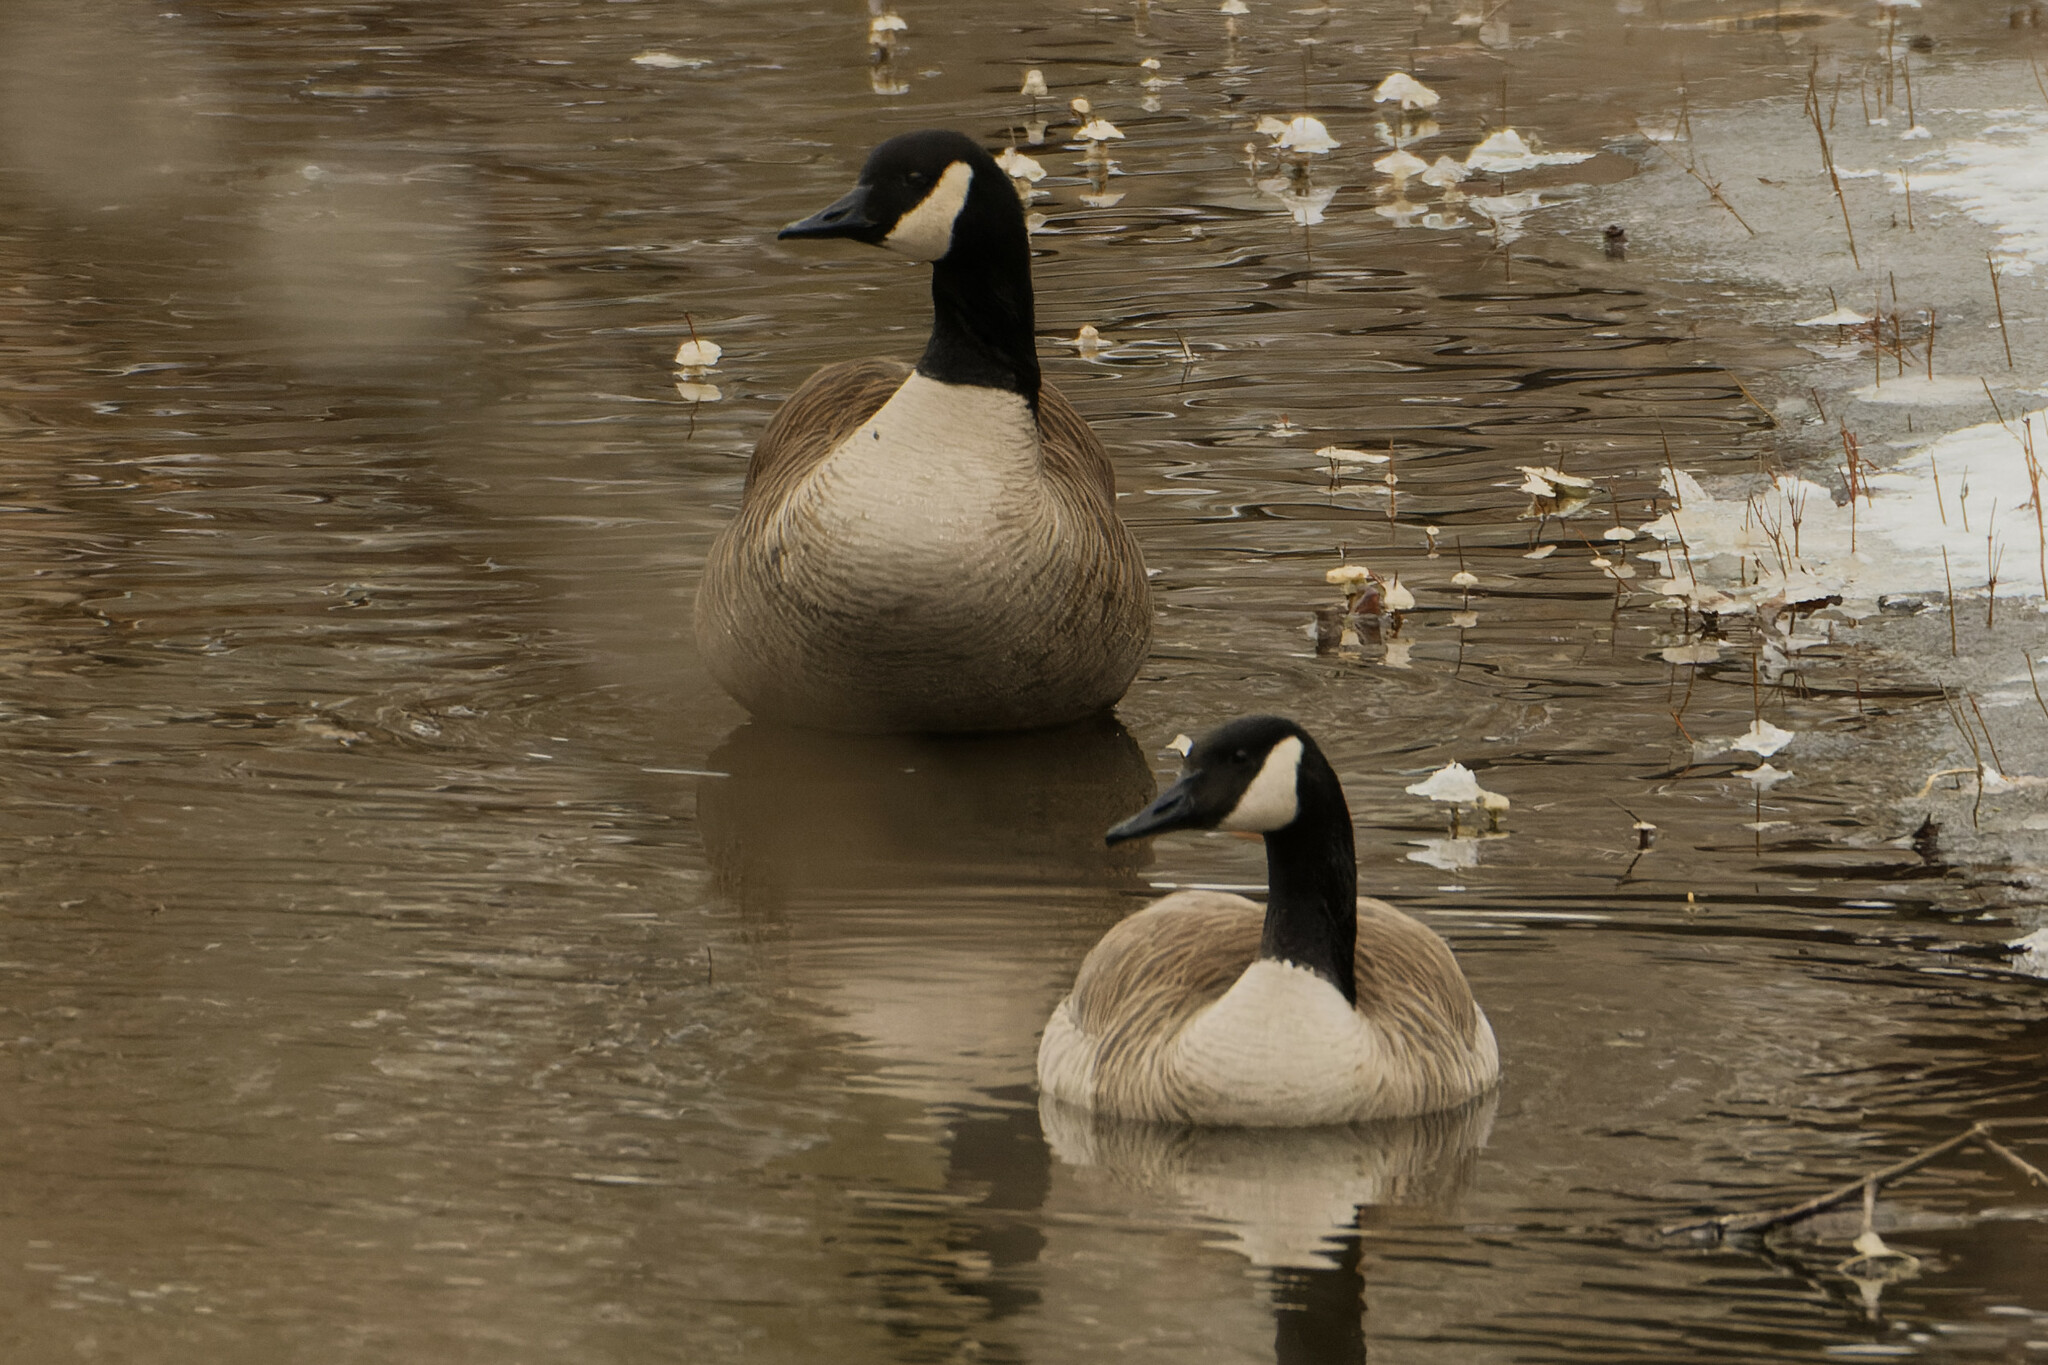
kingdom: Animalia
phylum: Chordata
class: Aves
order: Anseriformes
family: Anatidae
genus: Branta
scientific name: Branta canadensis
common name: Canada goose
